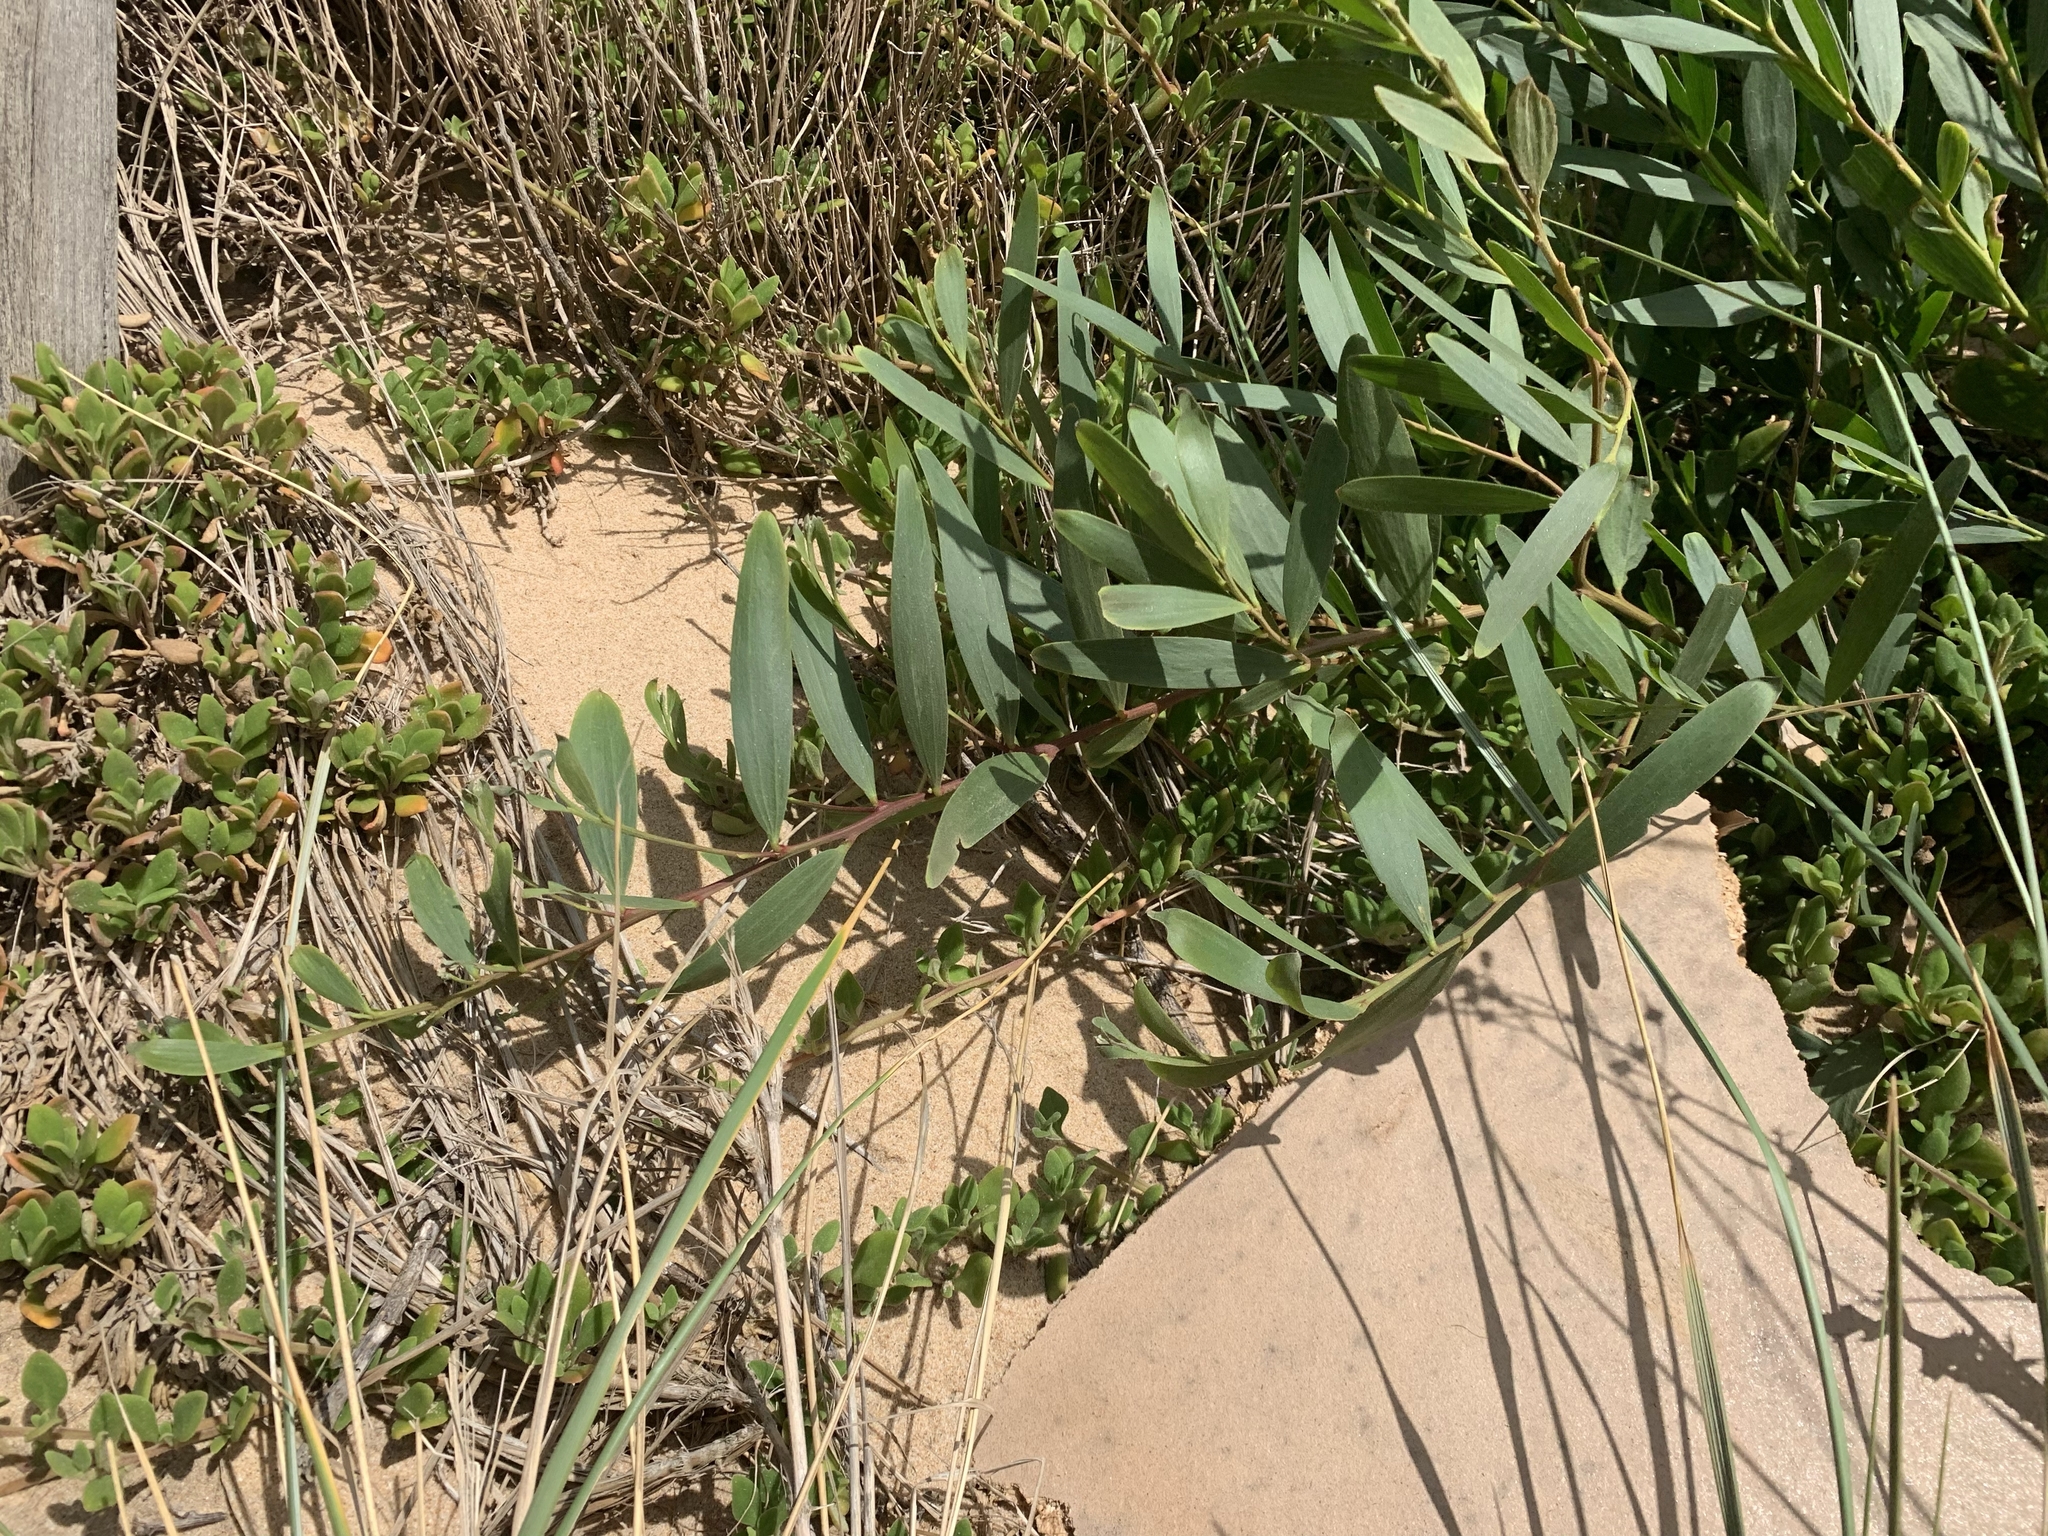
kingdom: Plantae
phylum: Tracheophyta
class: Magnoliopsida
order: Fabales
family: Fabaceae
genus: Acacia
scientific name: Acacia longifolia
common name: Sydney golden wattle
